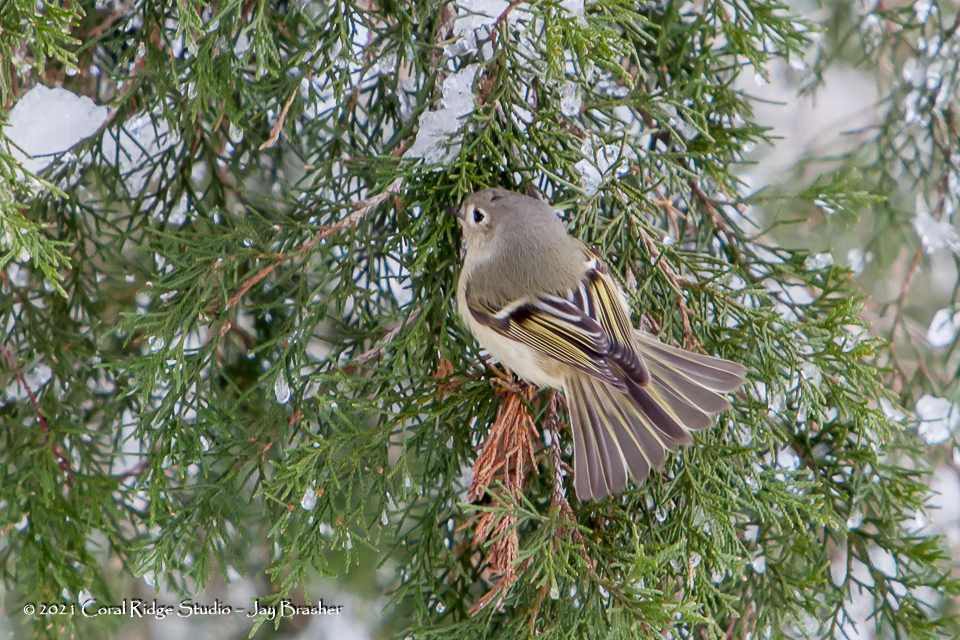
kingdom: Animalia
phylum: Chordata
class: Aves
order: Passeriformes
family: Regulidae
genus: Regulus
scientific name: Regulus calendula
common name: Ruby-crowned kinglet
